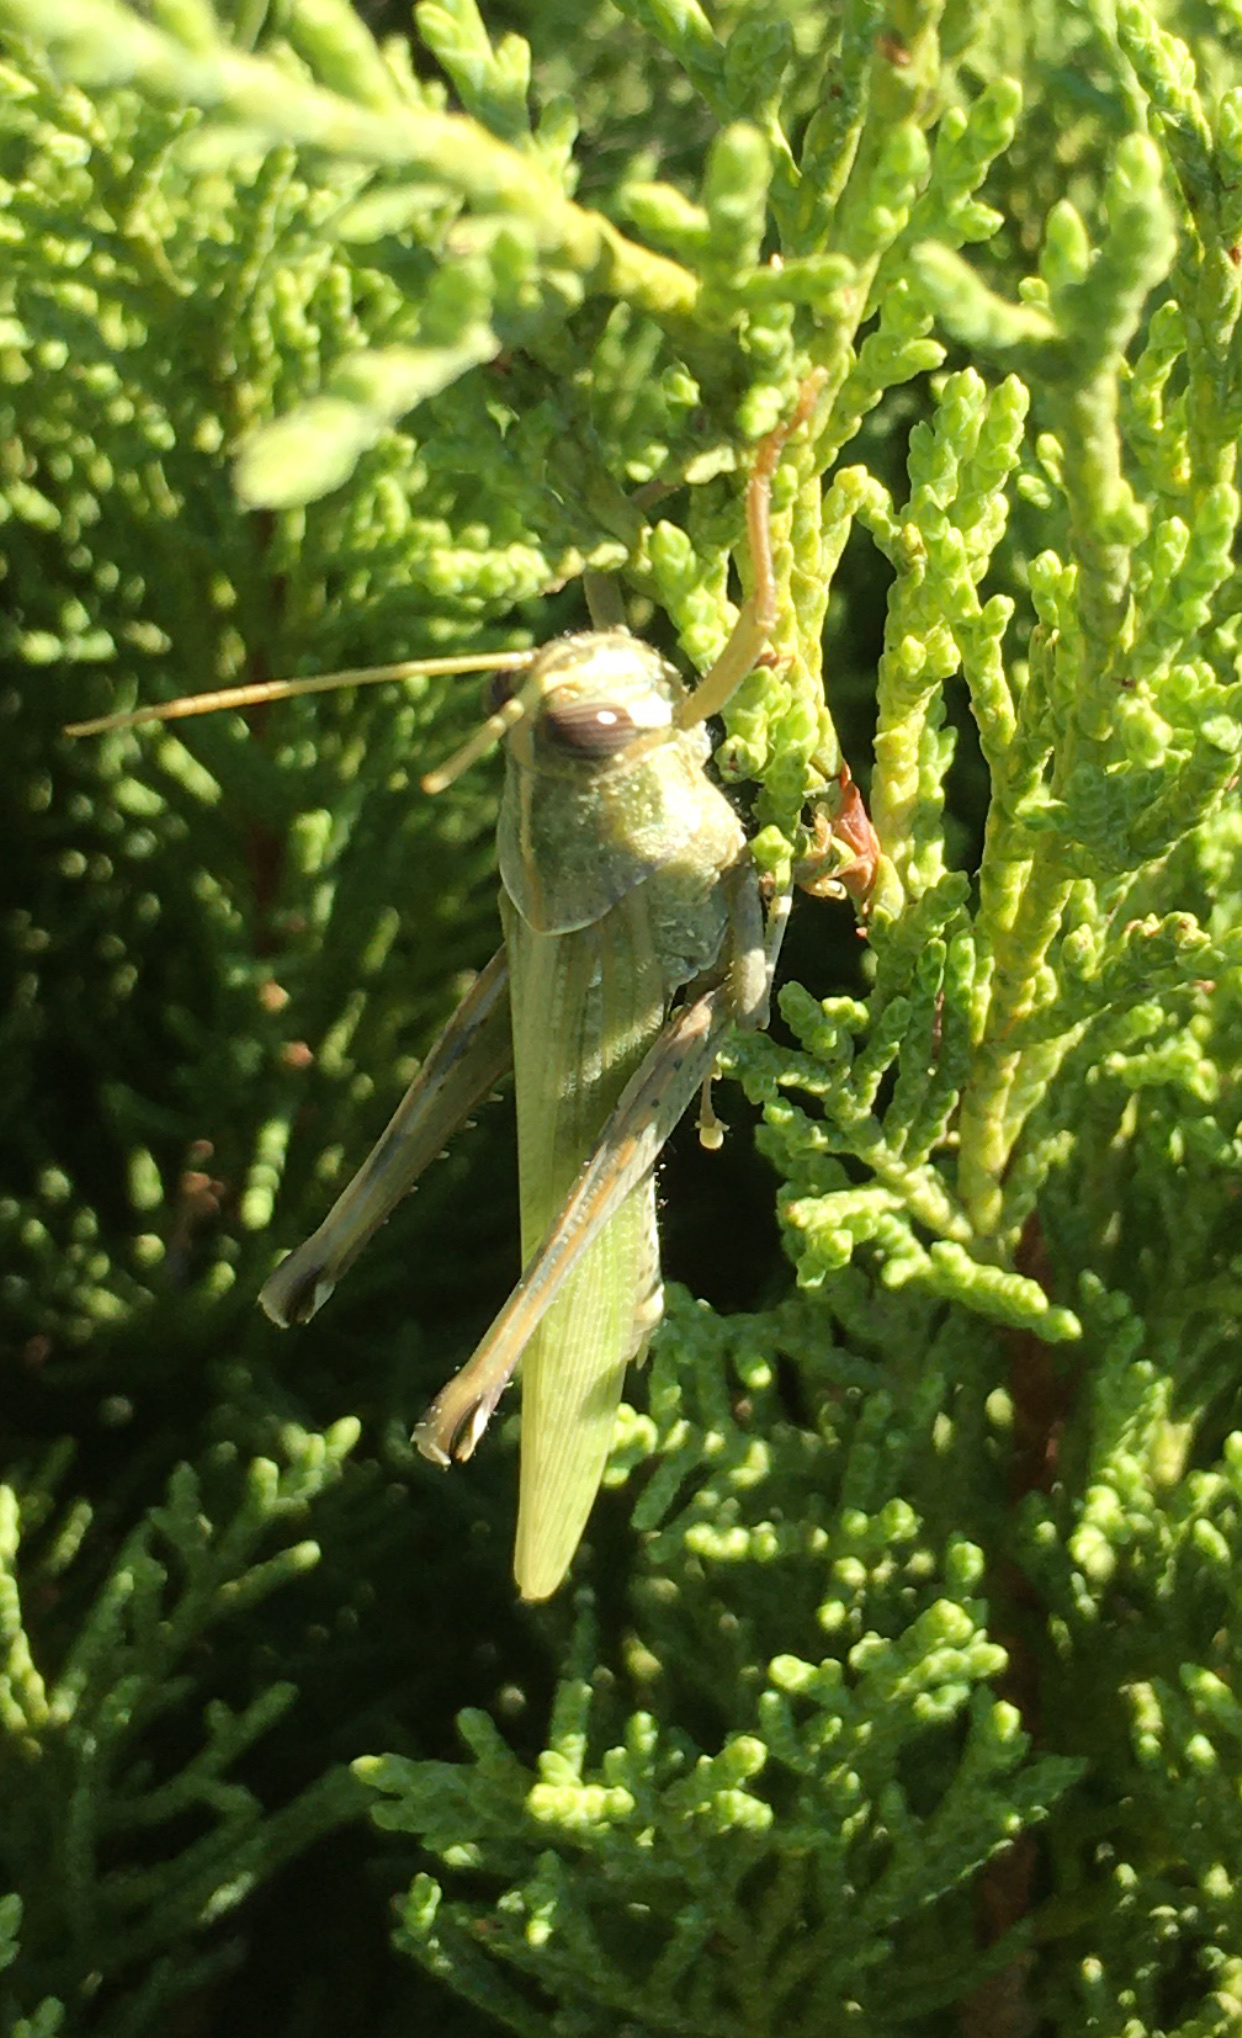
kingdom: Animalia
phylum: Arthropoda
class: Insecta
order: Orthoptera
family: Acrididae
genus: Schistocerca
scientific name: Schistocerca nitens
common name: Vagrant grasshopper
